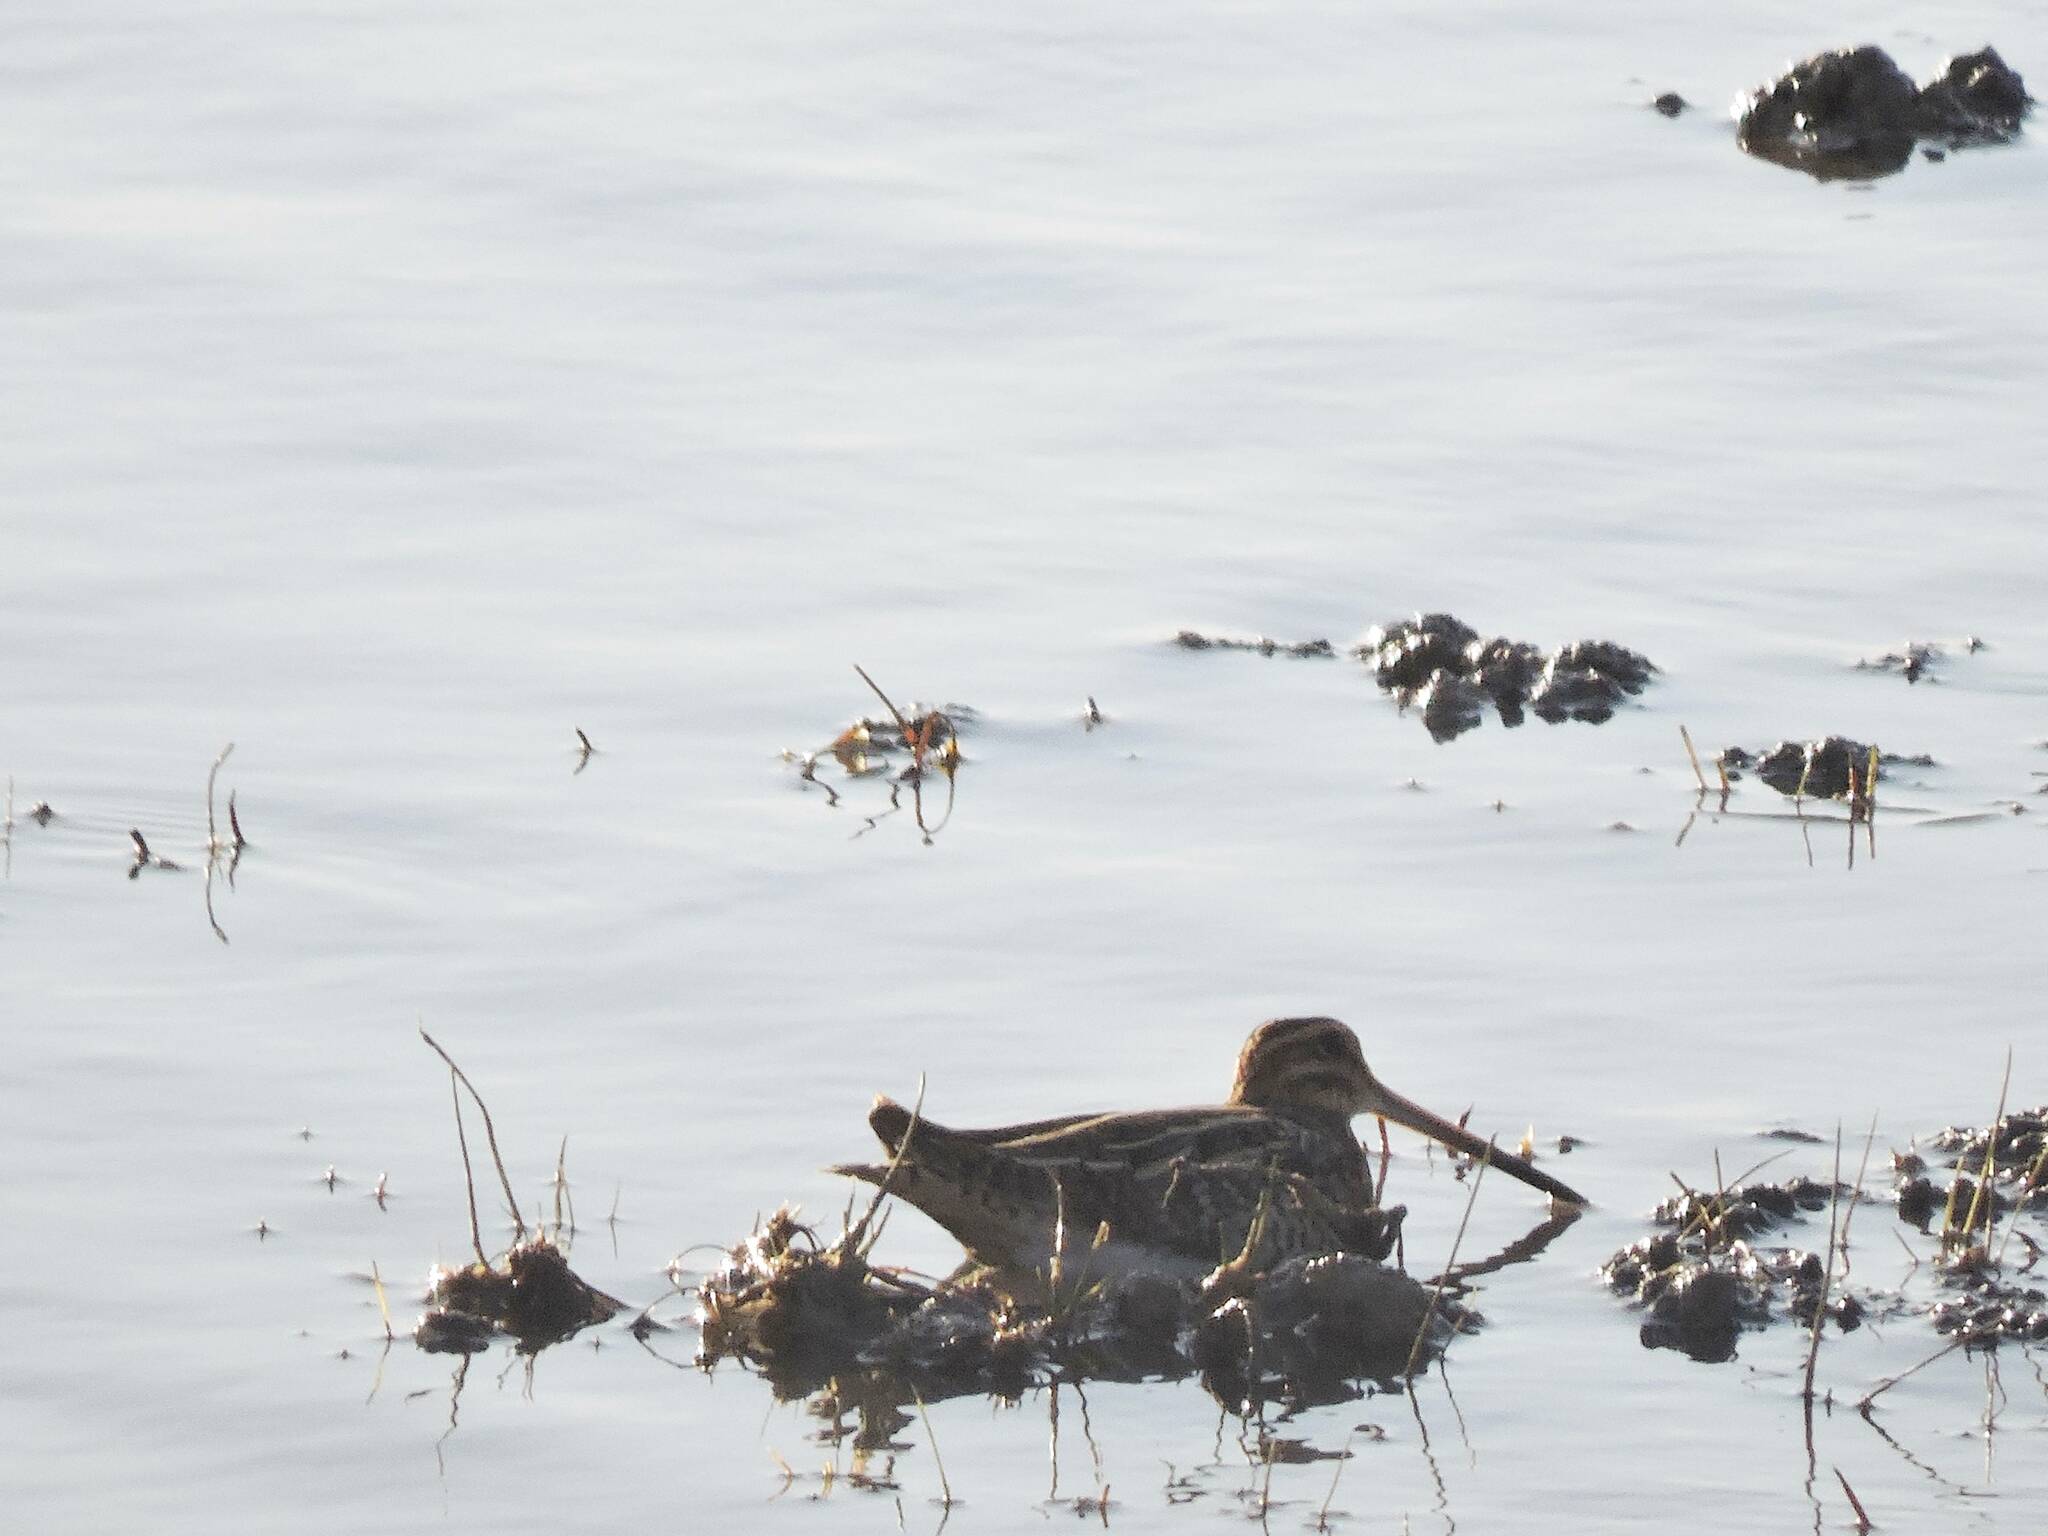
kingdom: Animalia
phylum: Chordata
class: Aves
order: Charadriiformes
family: Scolopacidae
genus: Gallinago
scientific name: Gallinago gallinago
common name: Common snipe
